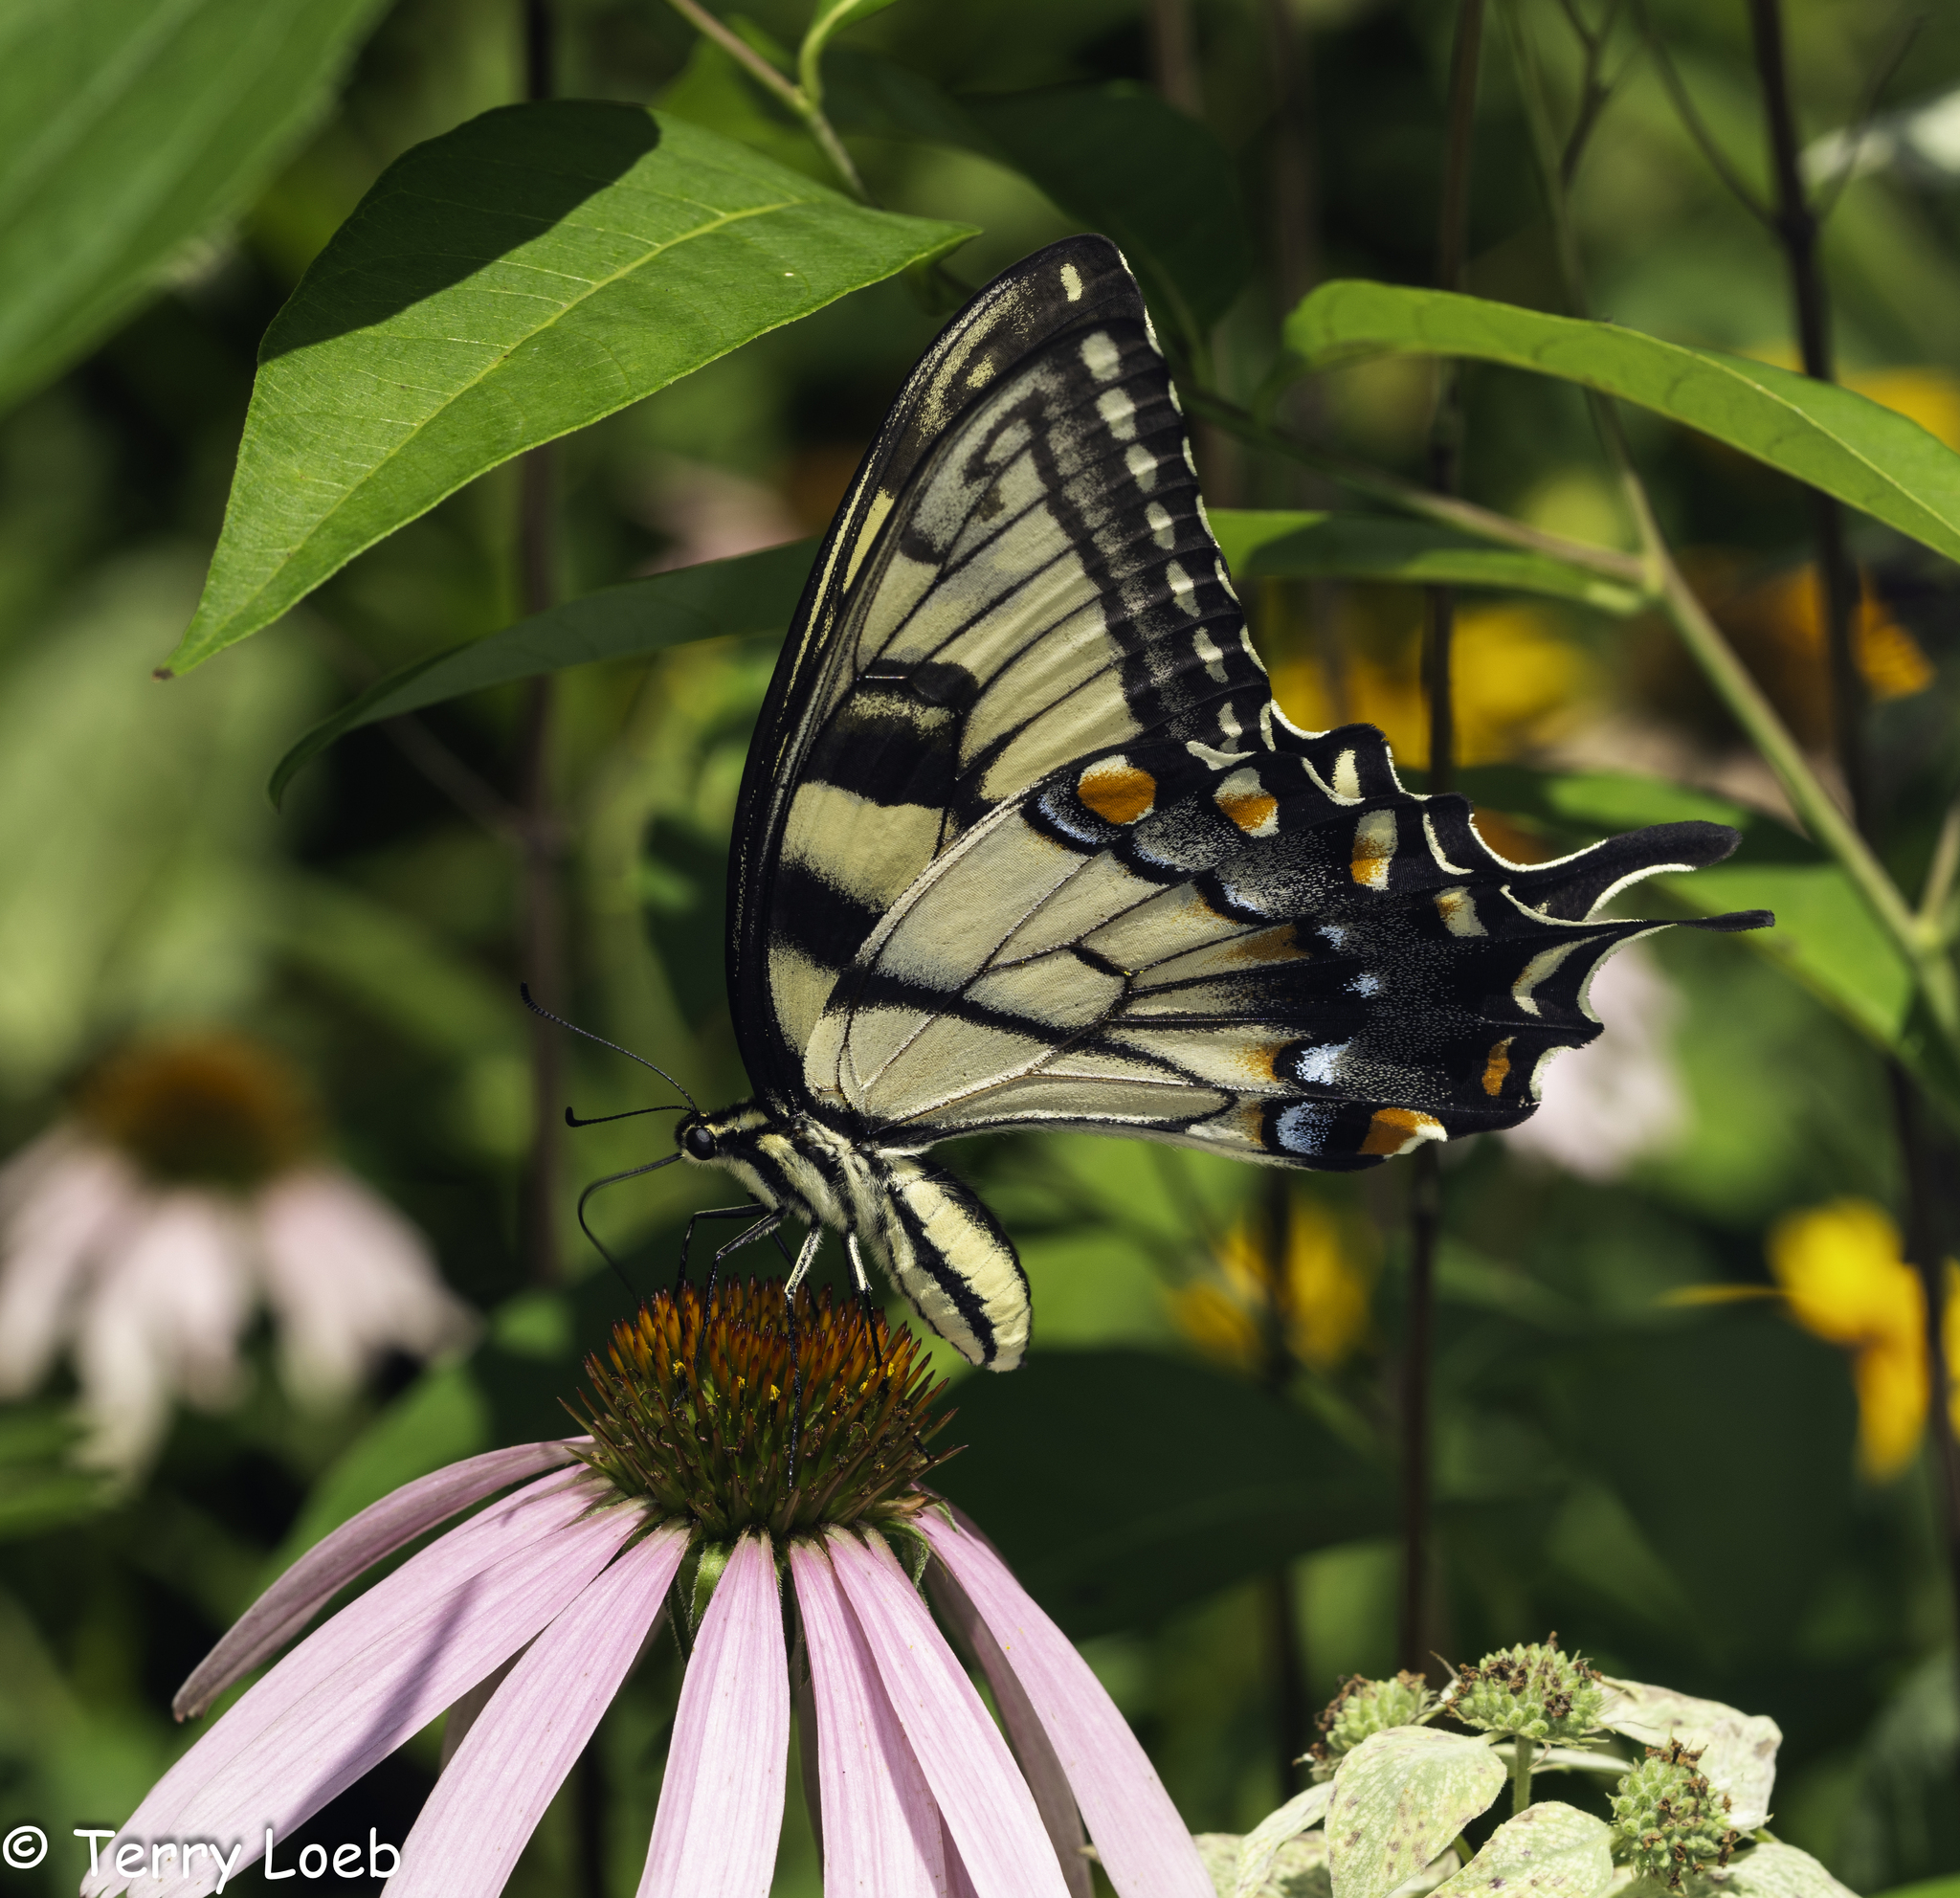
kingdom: Animalia
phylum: Arthropoda
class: Insecta
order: Lepidoptera
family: Papilionidae
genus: Papilio
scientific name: Papilio glaucus
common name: Tiger swallowtail
